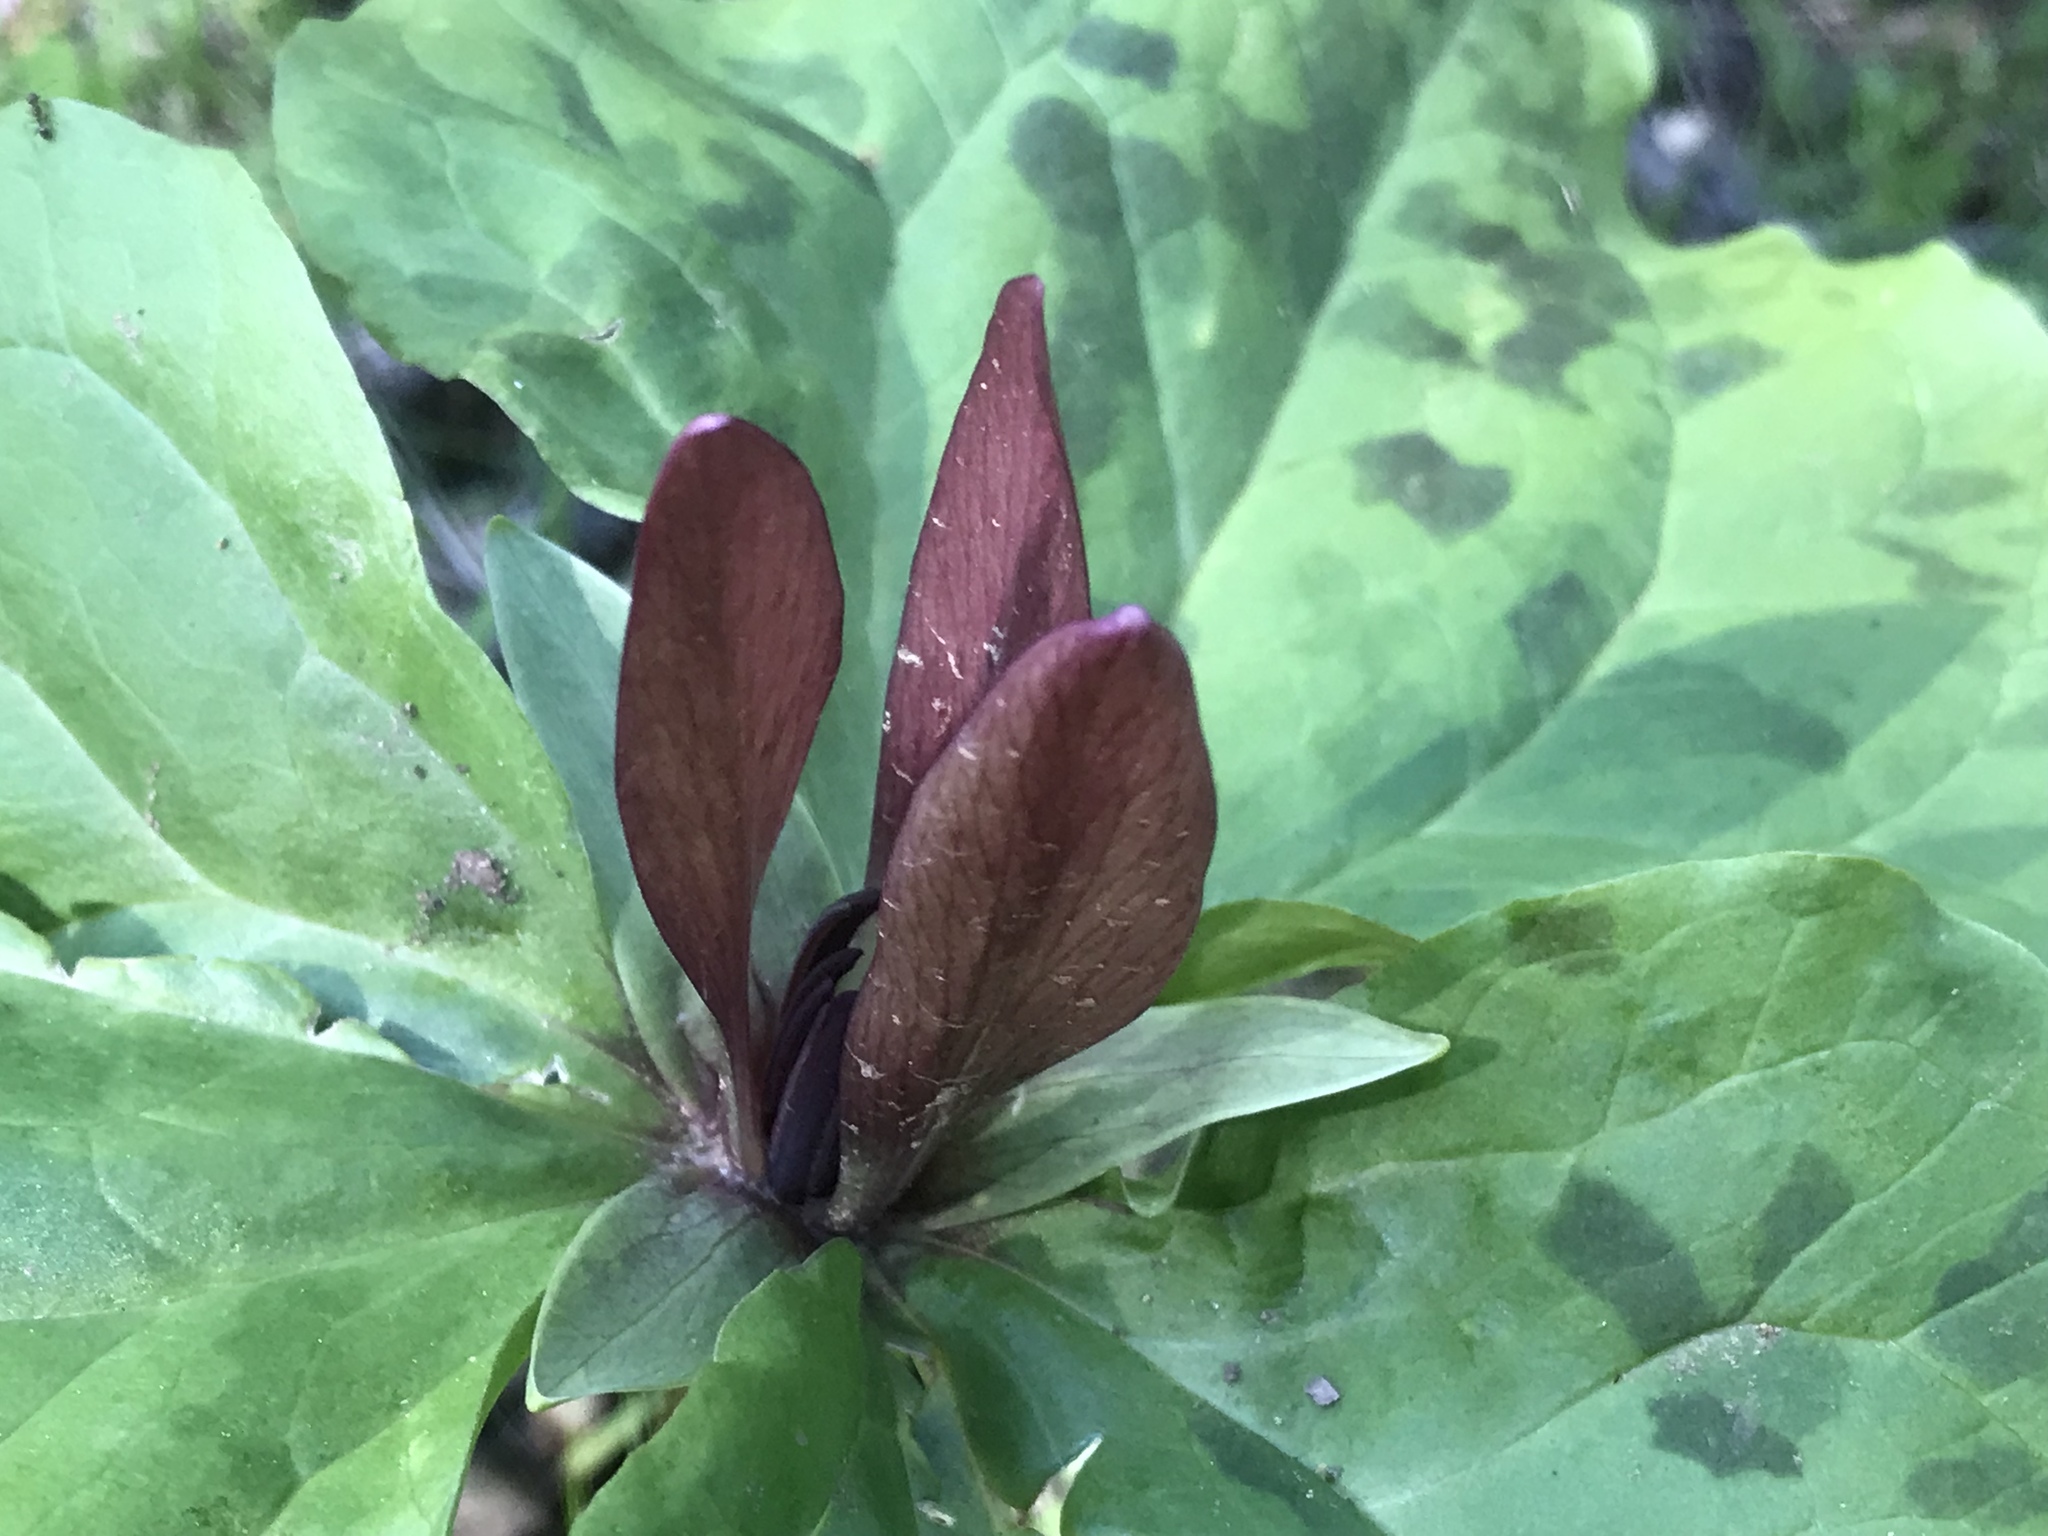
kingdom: Plantae
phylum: Tracheophyta
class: Liliopsida
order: Liliales
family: Melanthiaceae
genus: Trillium
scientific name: Trillium chloropetalum
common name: Giant trillium
